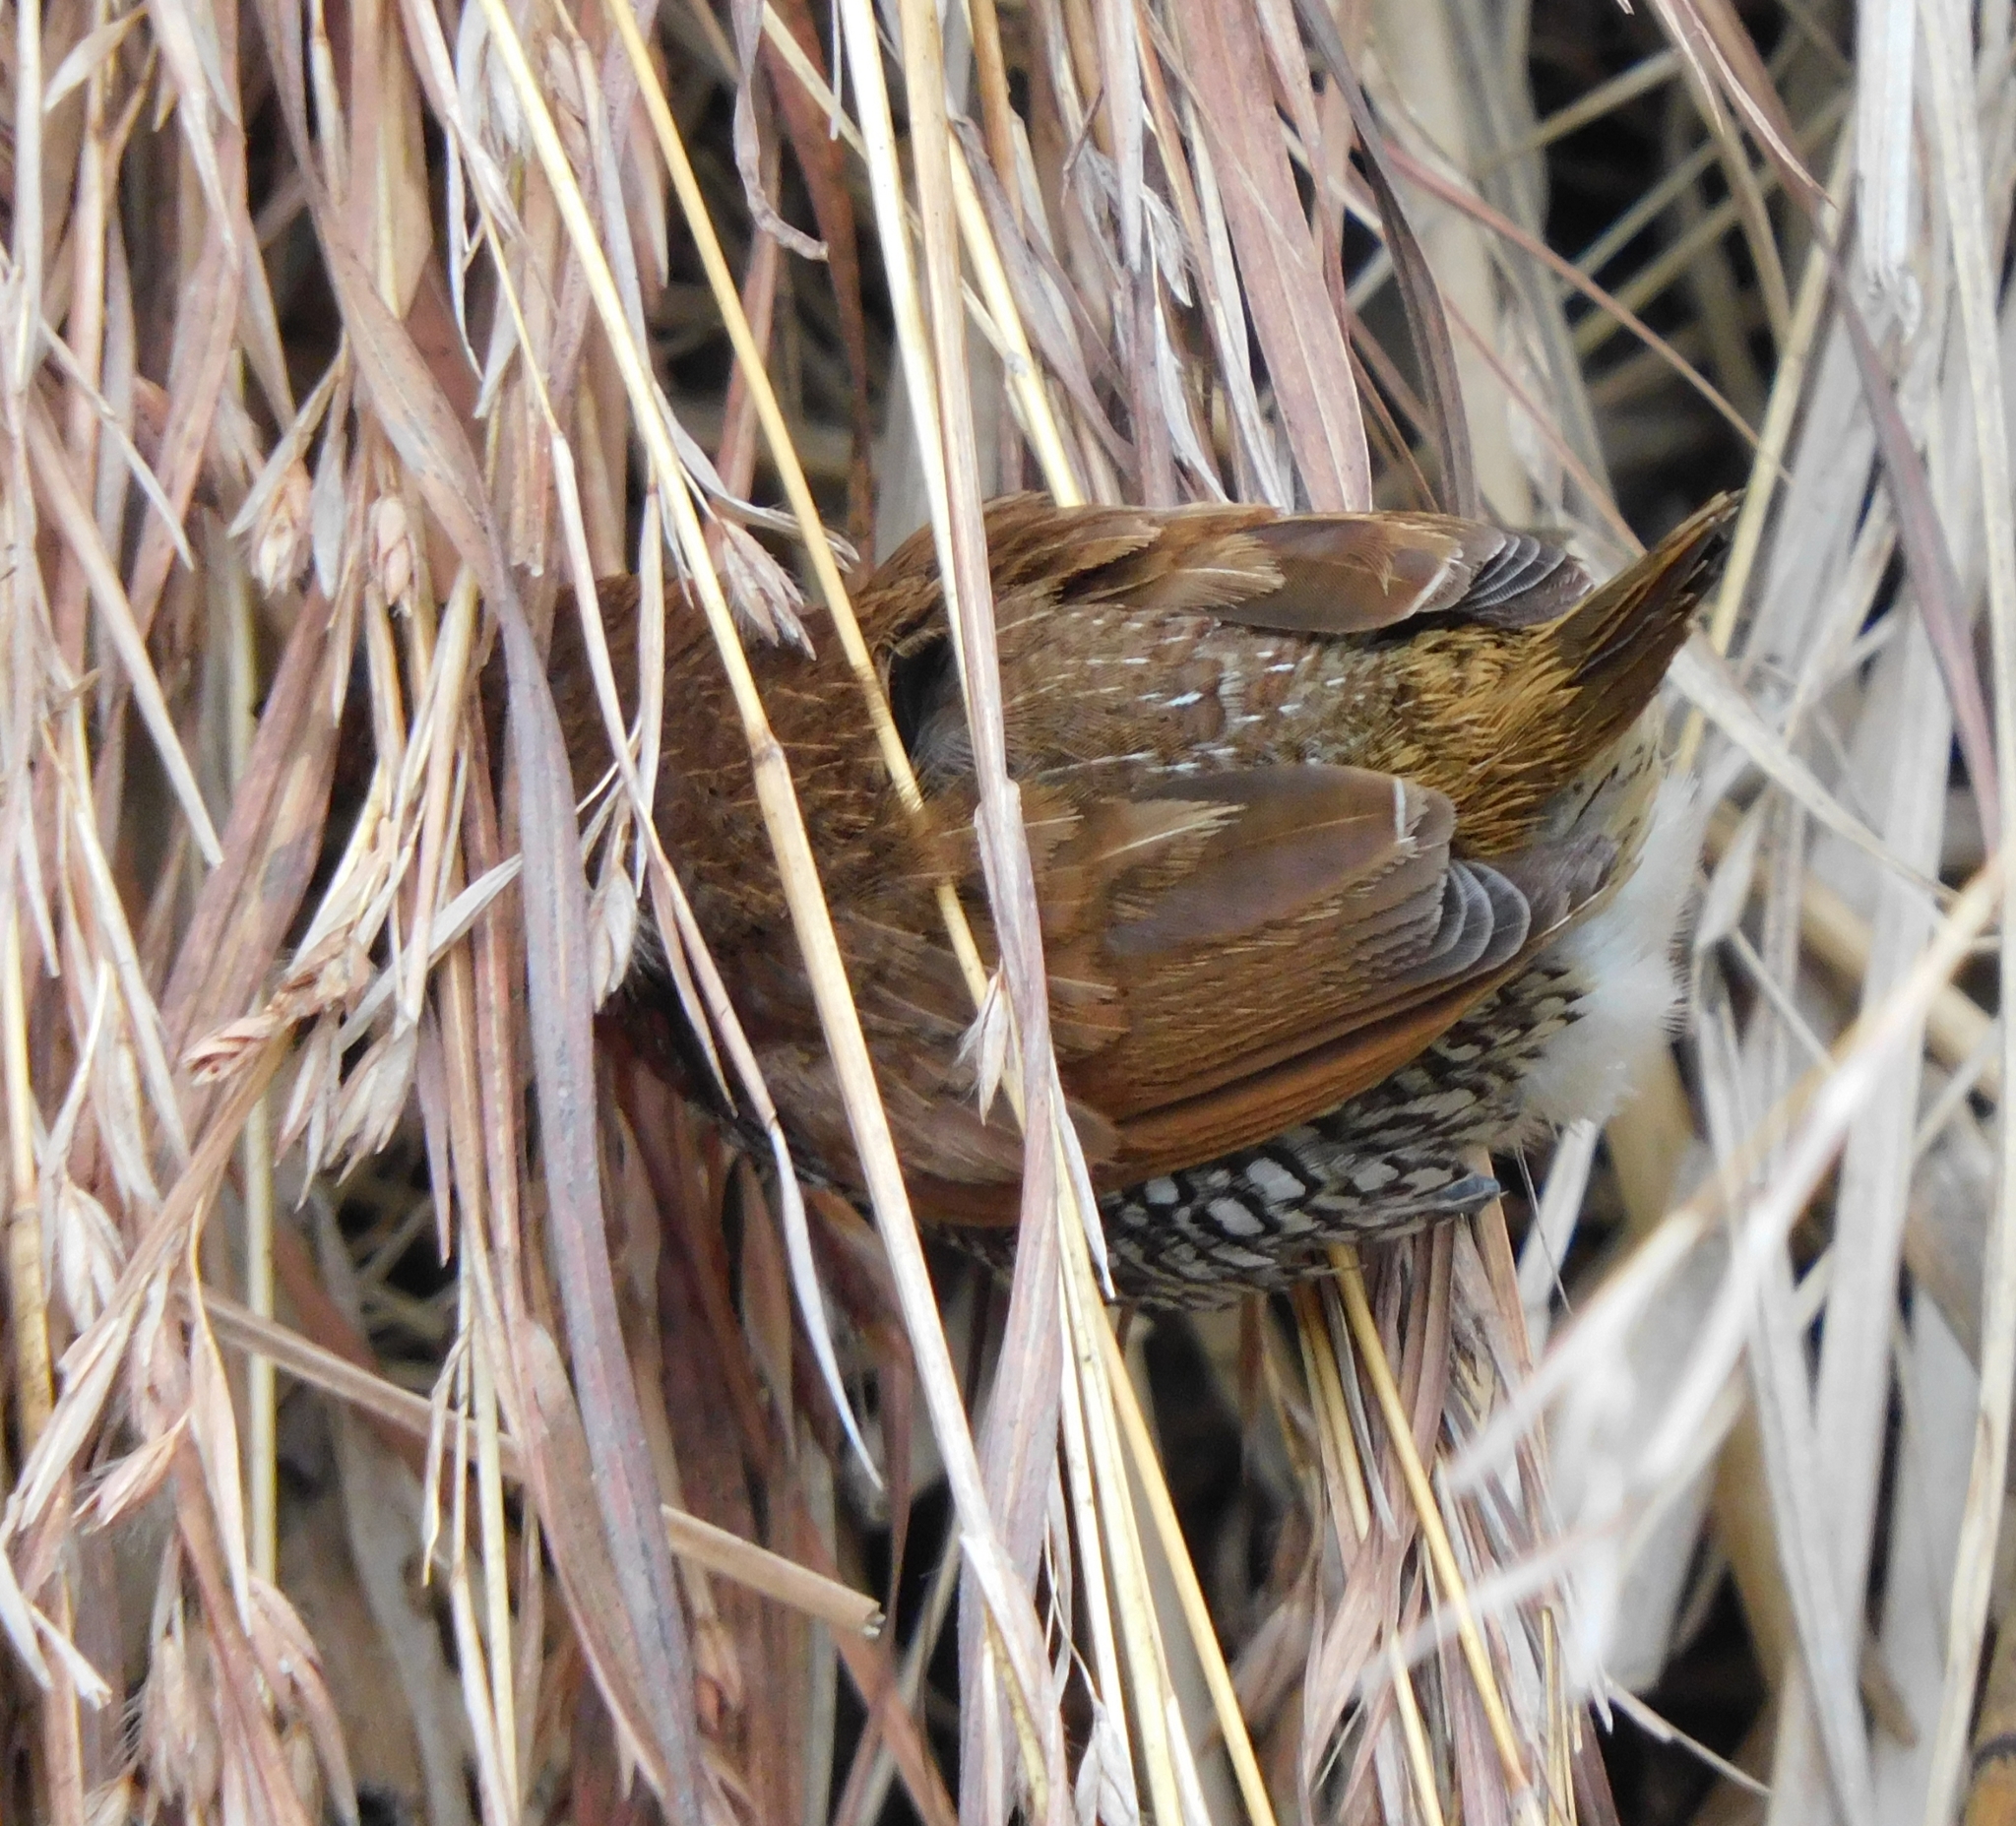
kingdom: Animalia
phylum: Chordata
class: Aves
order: Passeriformes
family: Estrildidae
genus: Lonchura
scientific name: Lonchura punctulata
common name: Scaly-breasted munia
